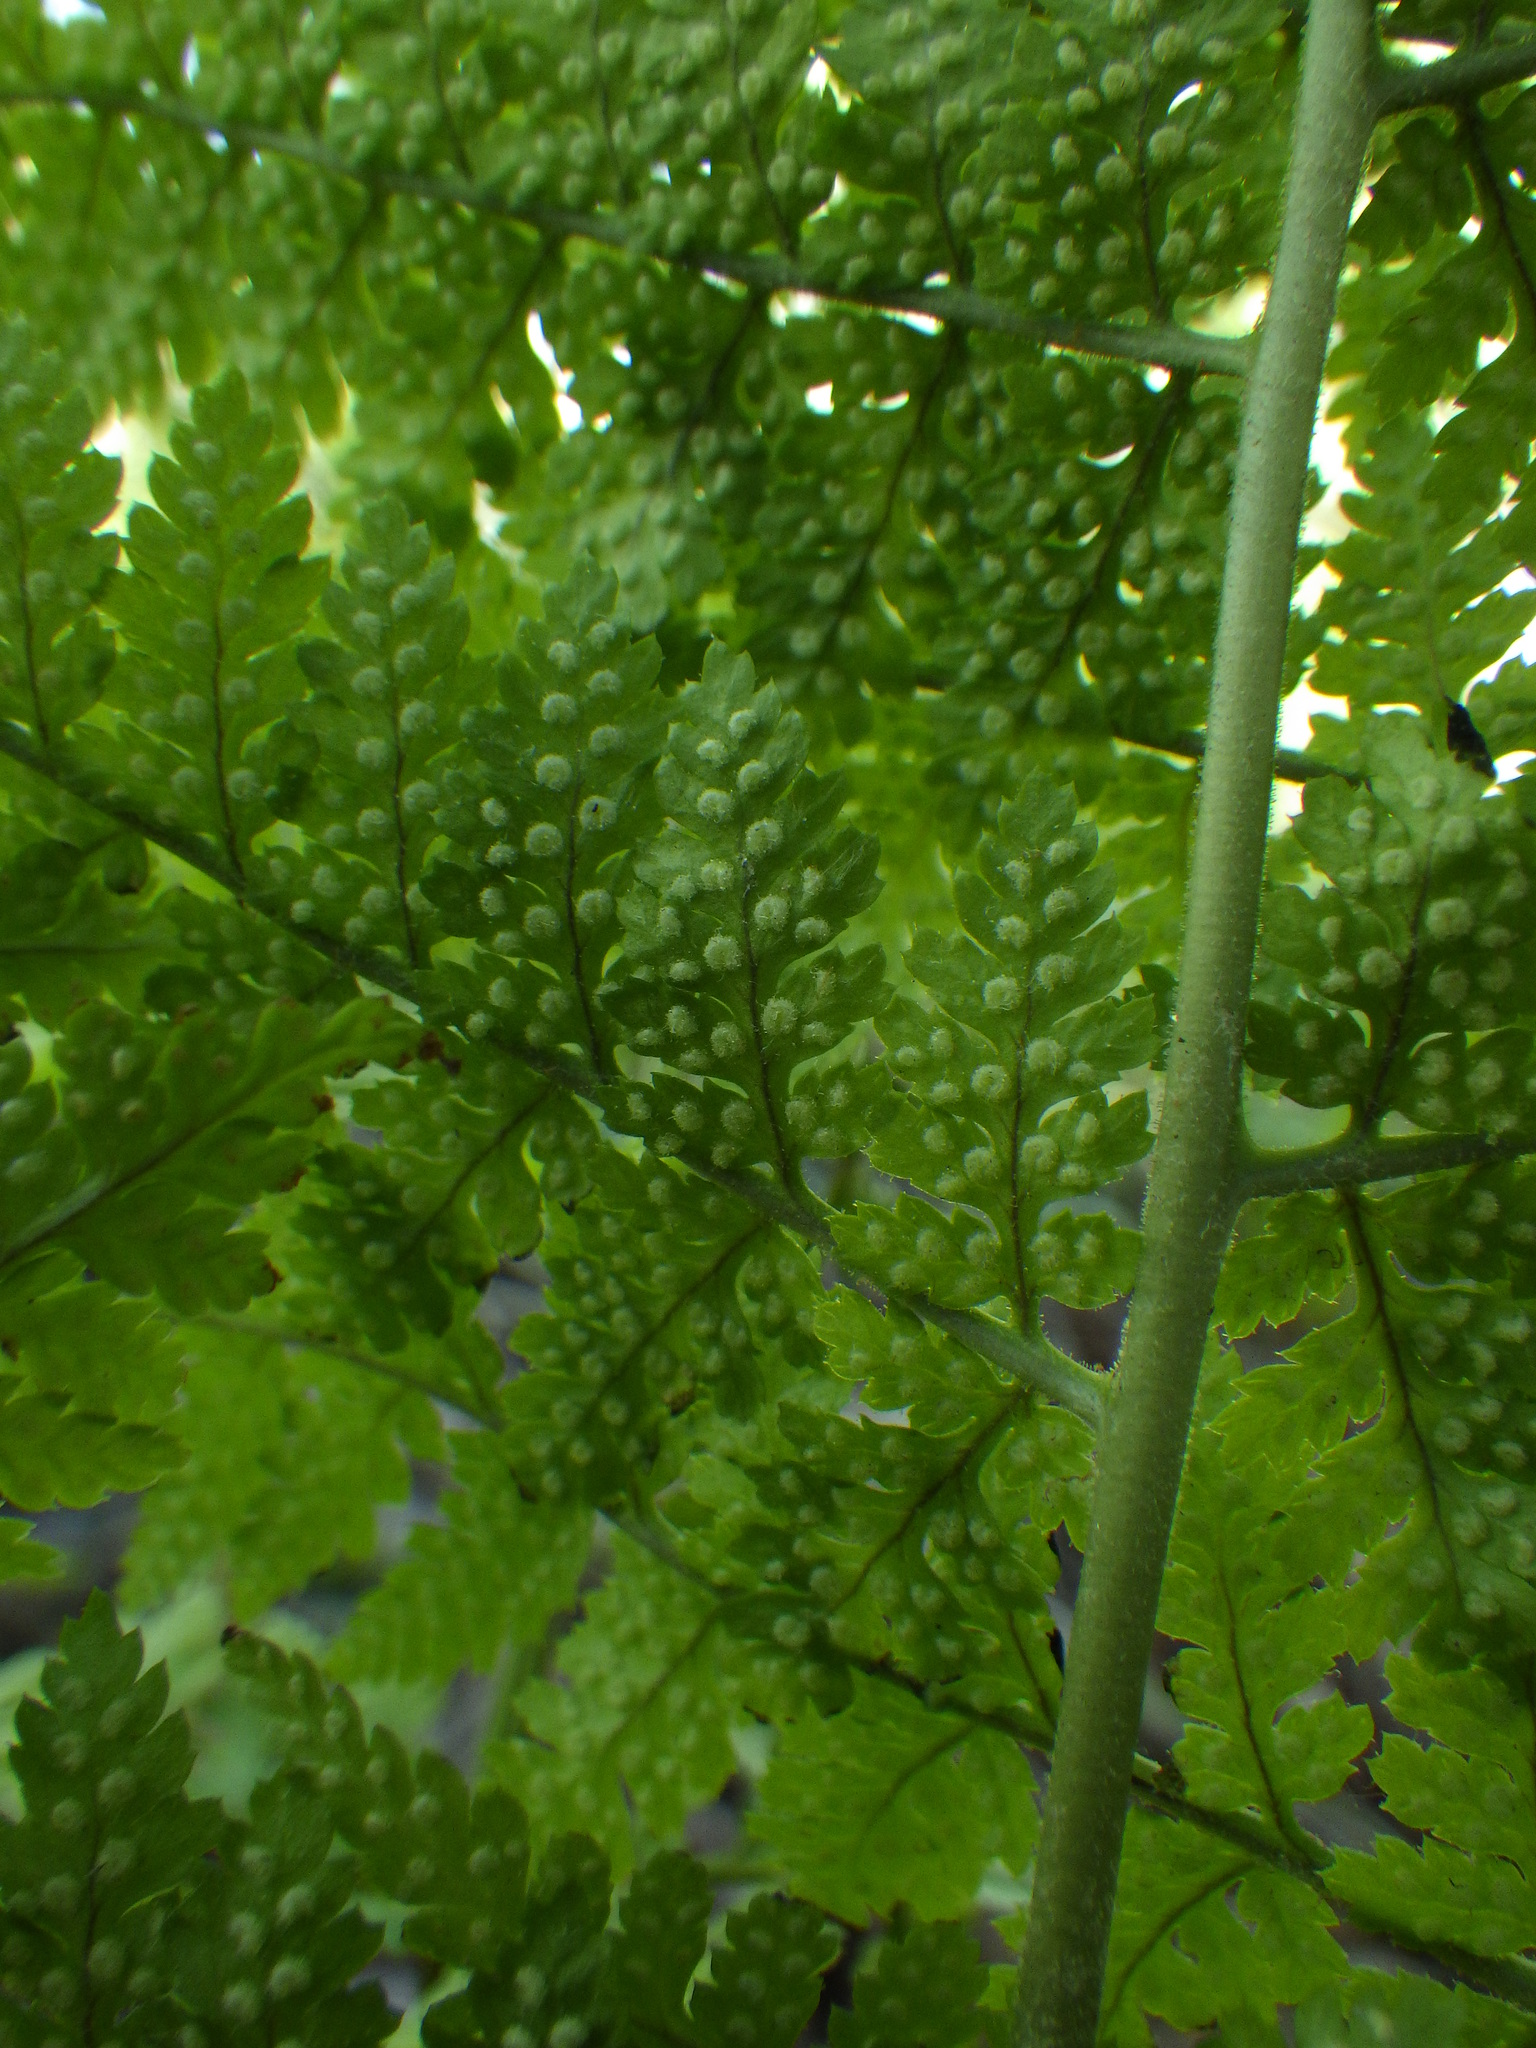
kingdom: Plantae
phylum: Tracheophyta
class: Polypodiopsida
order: Polypodiales
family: Dryopteridaceae
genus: Dryopteris
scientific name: Dryopteris intermedia
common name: Evergreen wood fern
